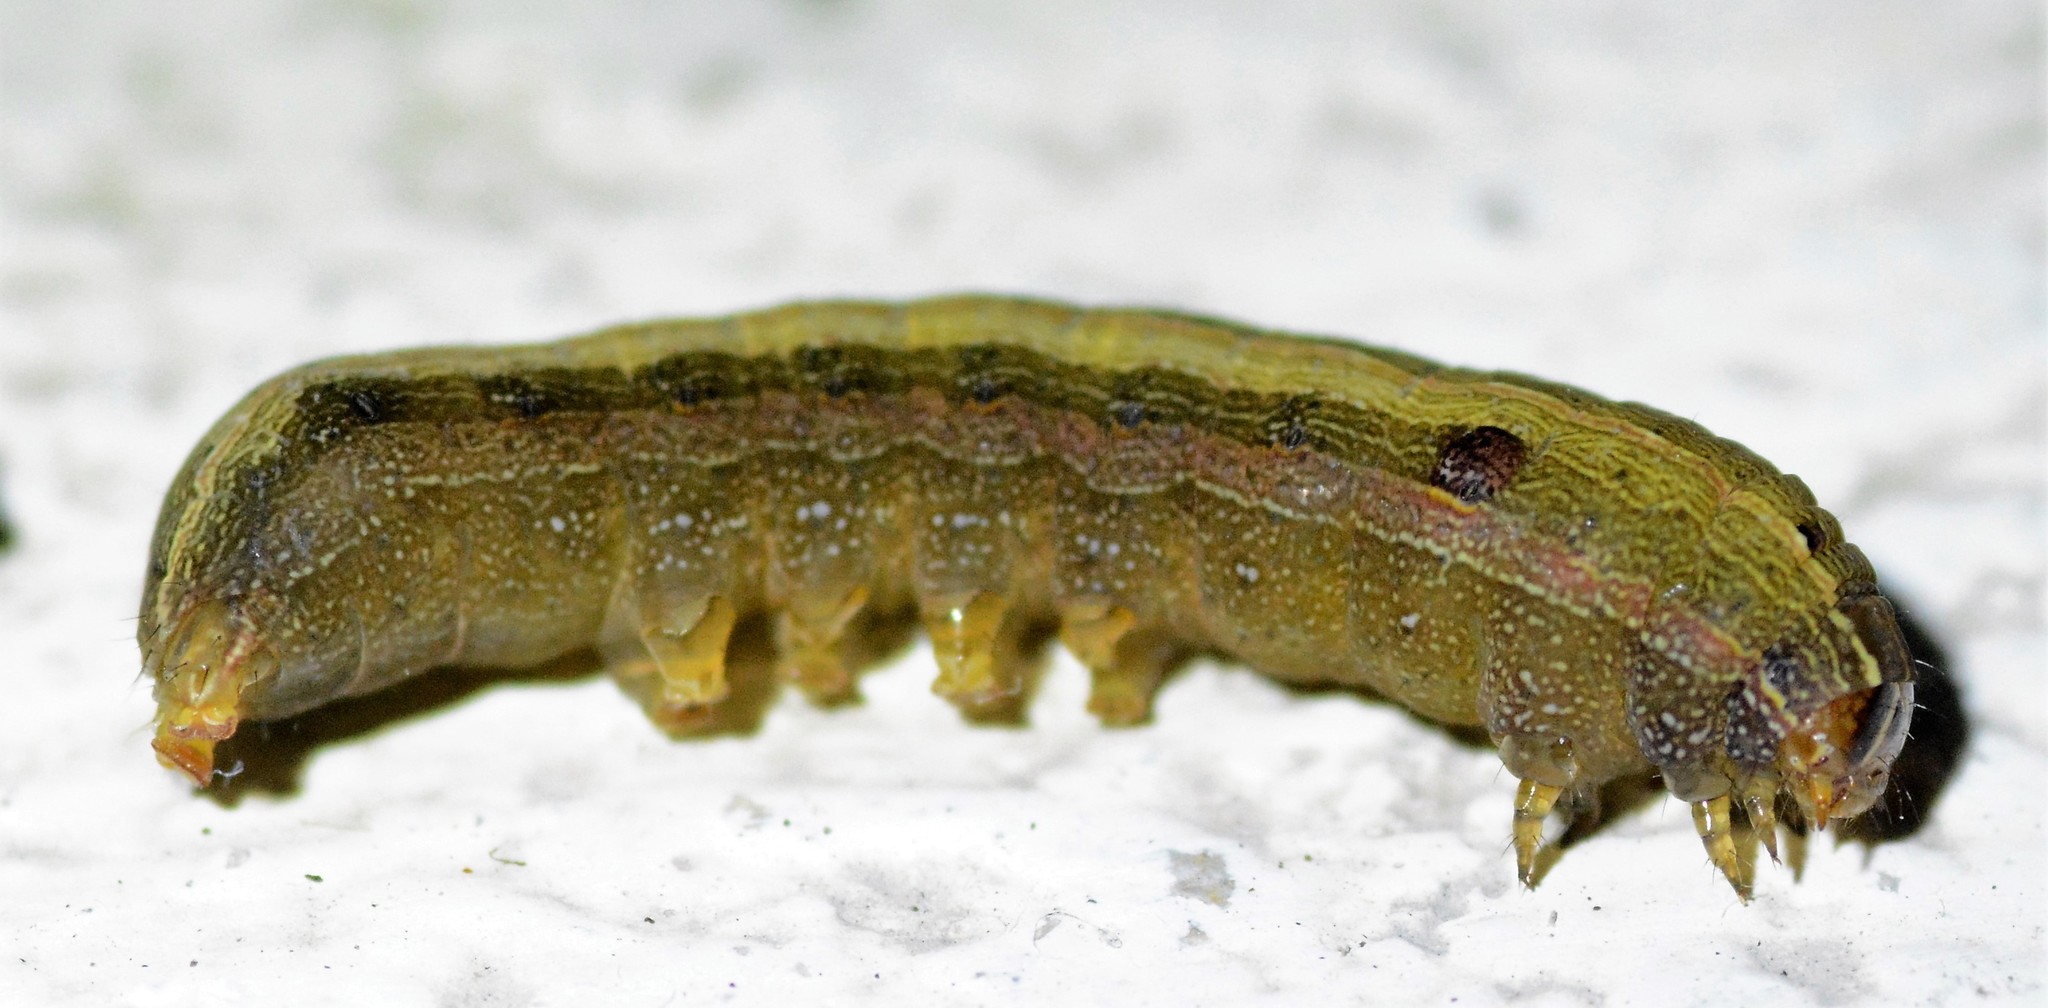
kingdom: Animalia
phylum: Arthropoda
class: Insecta
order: Lepidoptera
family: Noctuidae
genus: Spodoptera
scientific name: Spodoptera ornithogalli
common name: Yellow-striped armyworm
